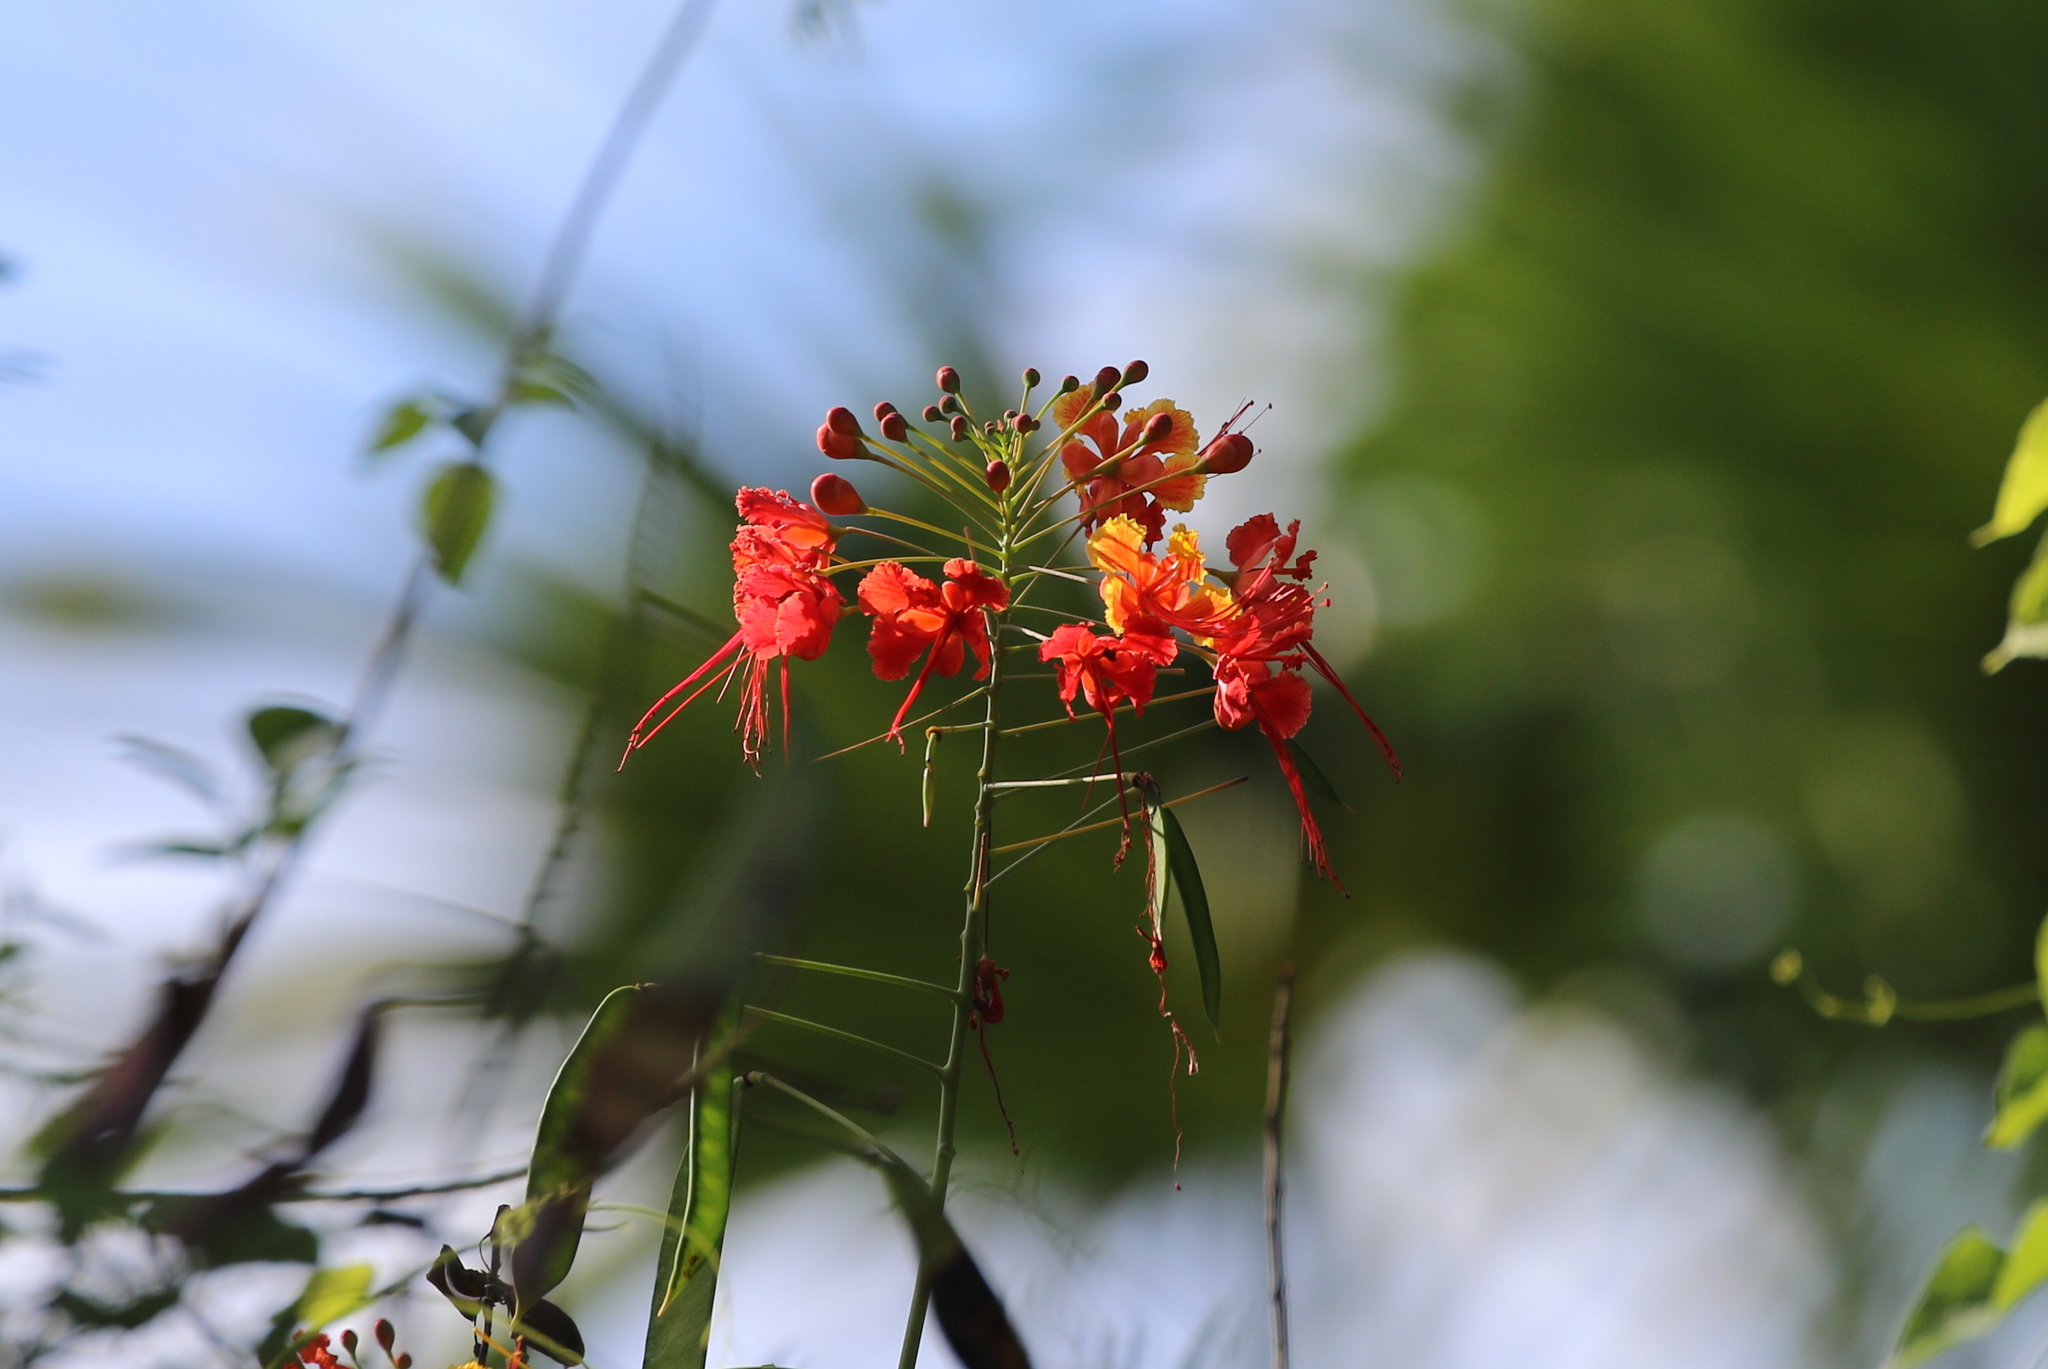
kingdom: Plantae
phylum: Tracheophyta
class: Magnoliopsida
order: Fabales
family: Fabaceae
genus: Caesalpinia
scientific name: Caesalpinia pulcherrima
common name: Pride-of-barbados
